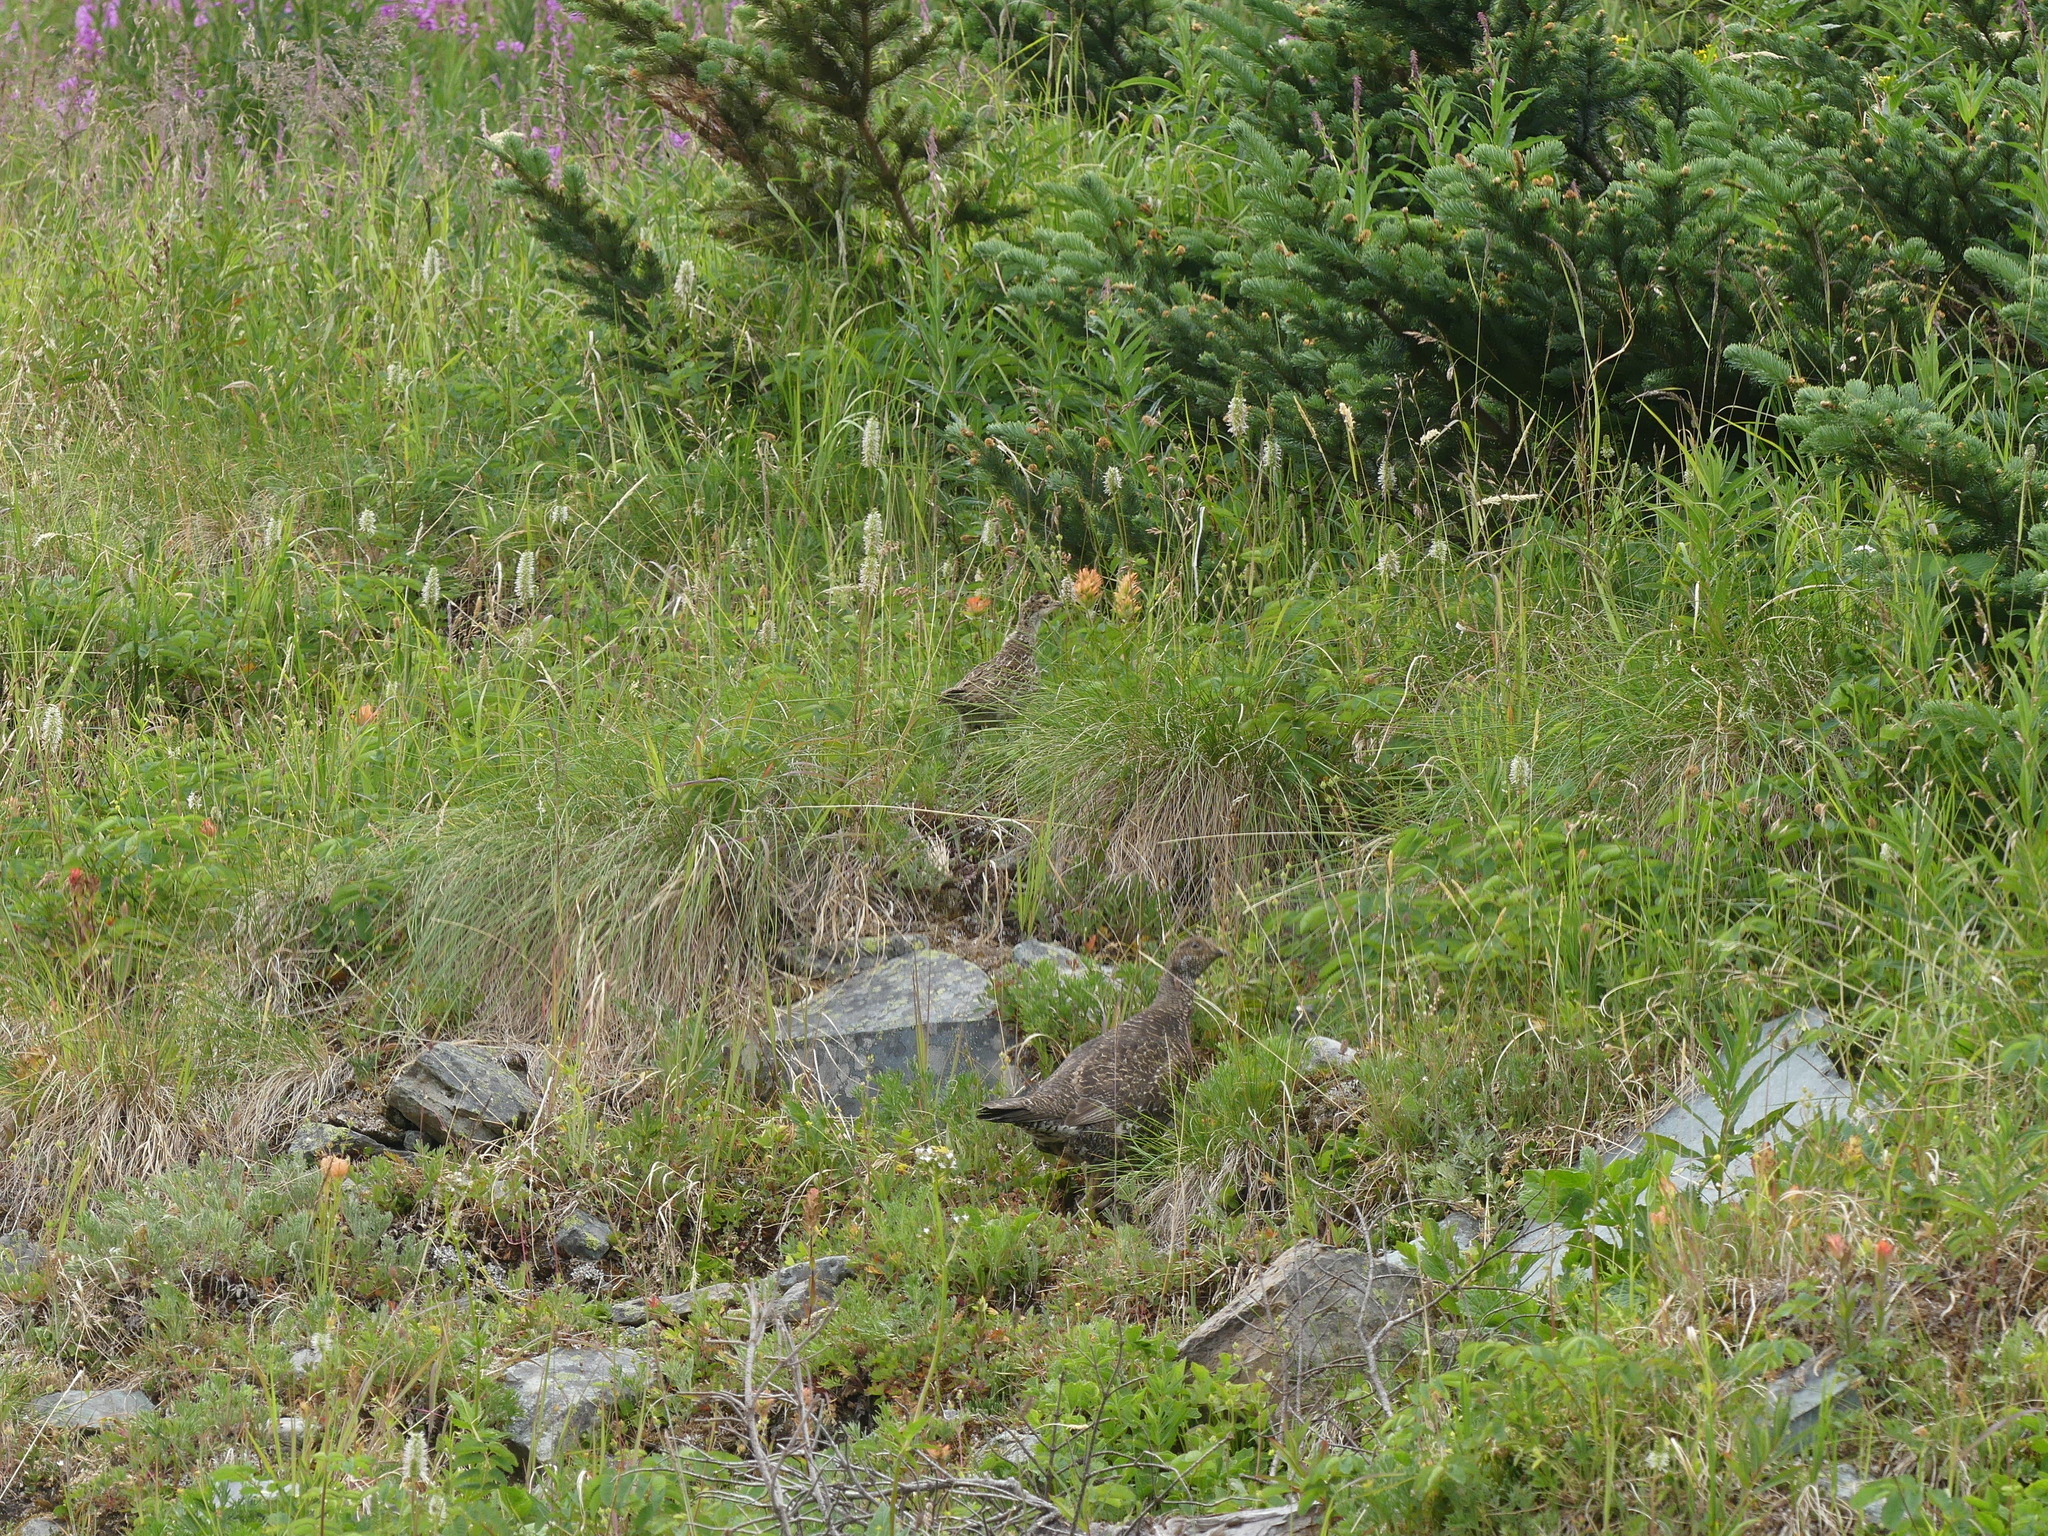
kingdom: Animalia
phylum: Chordata
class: Aves
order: Galliformes
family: Phasianidae
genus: Dendragapus
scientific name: Dendragapus obscurus
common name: Dusky grouse
